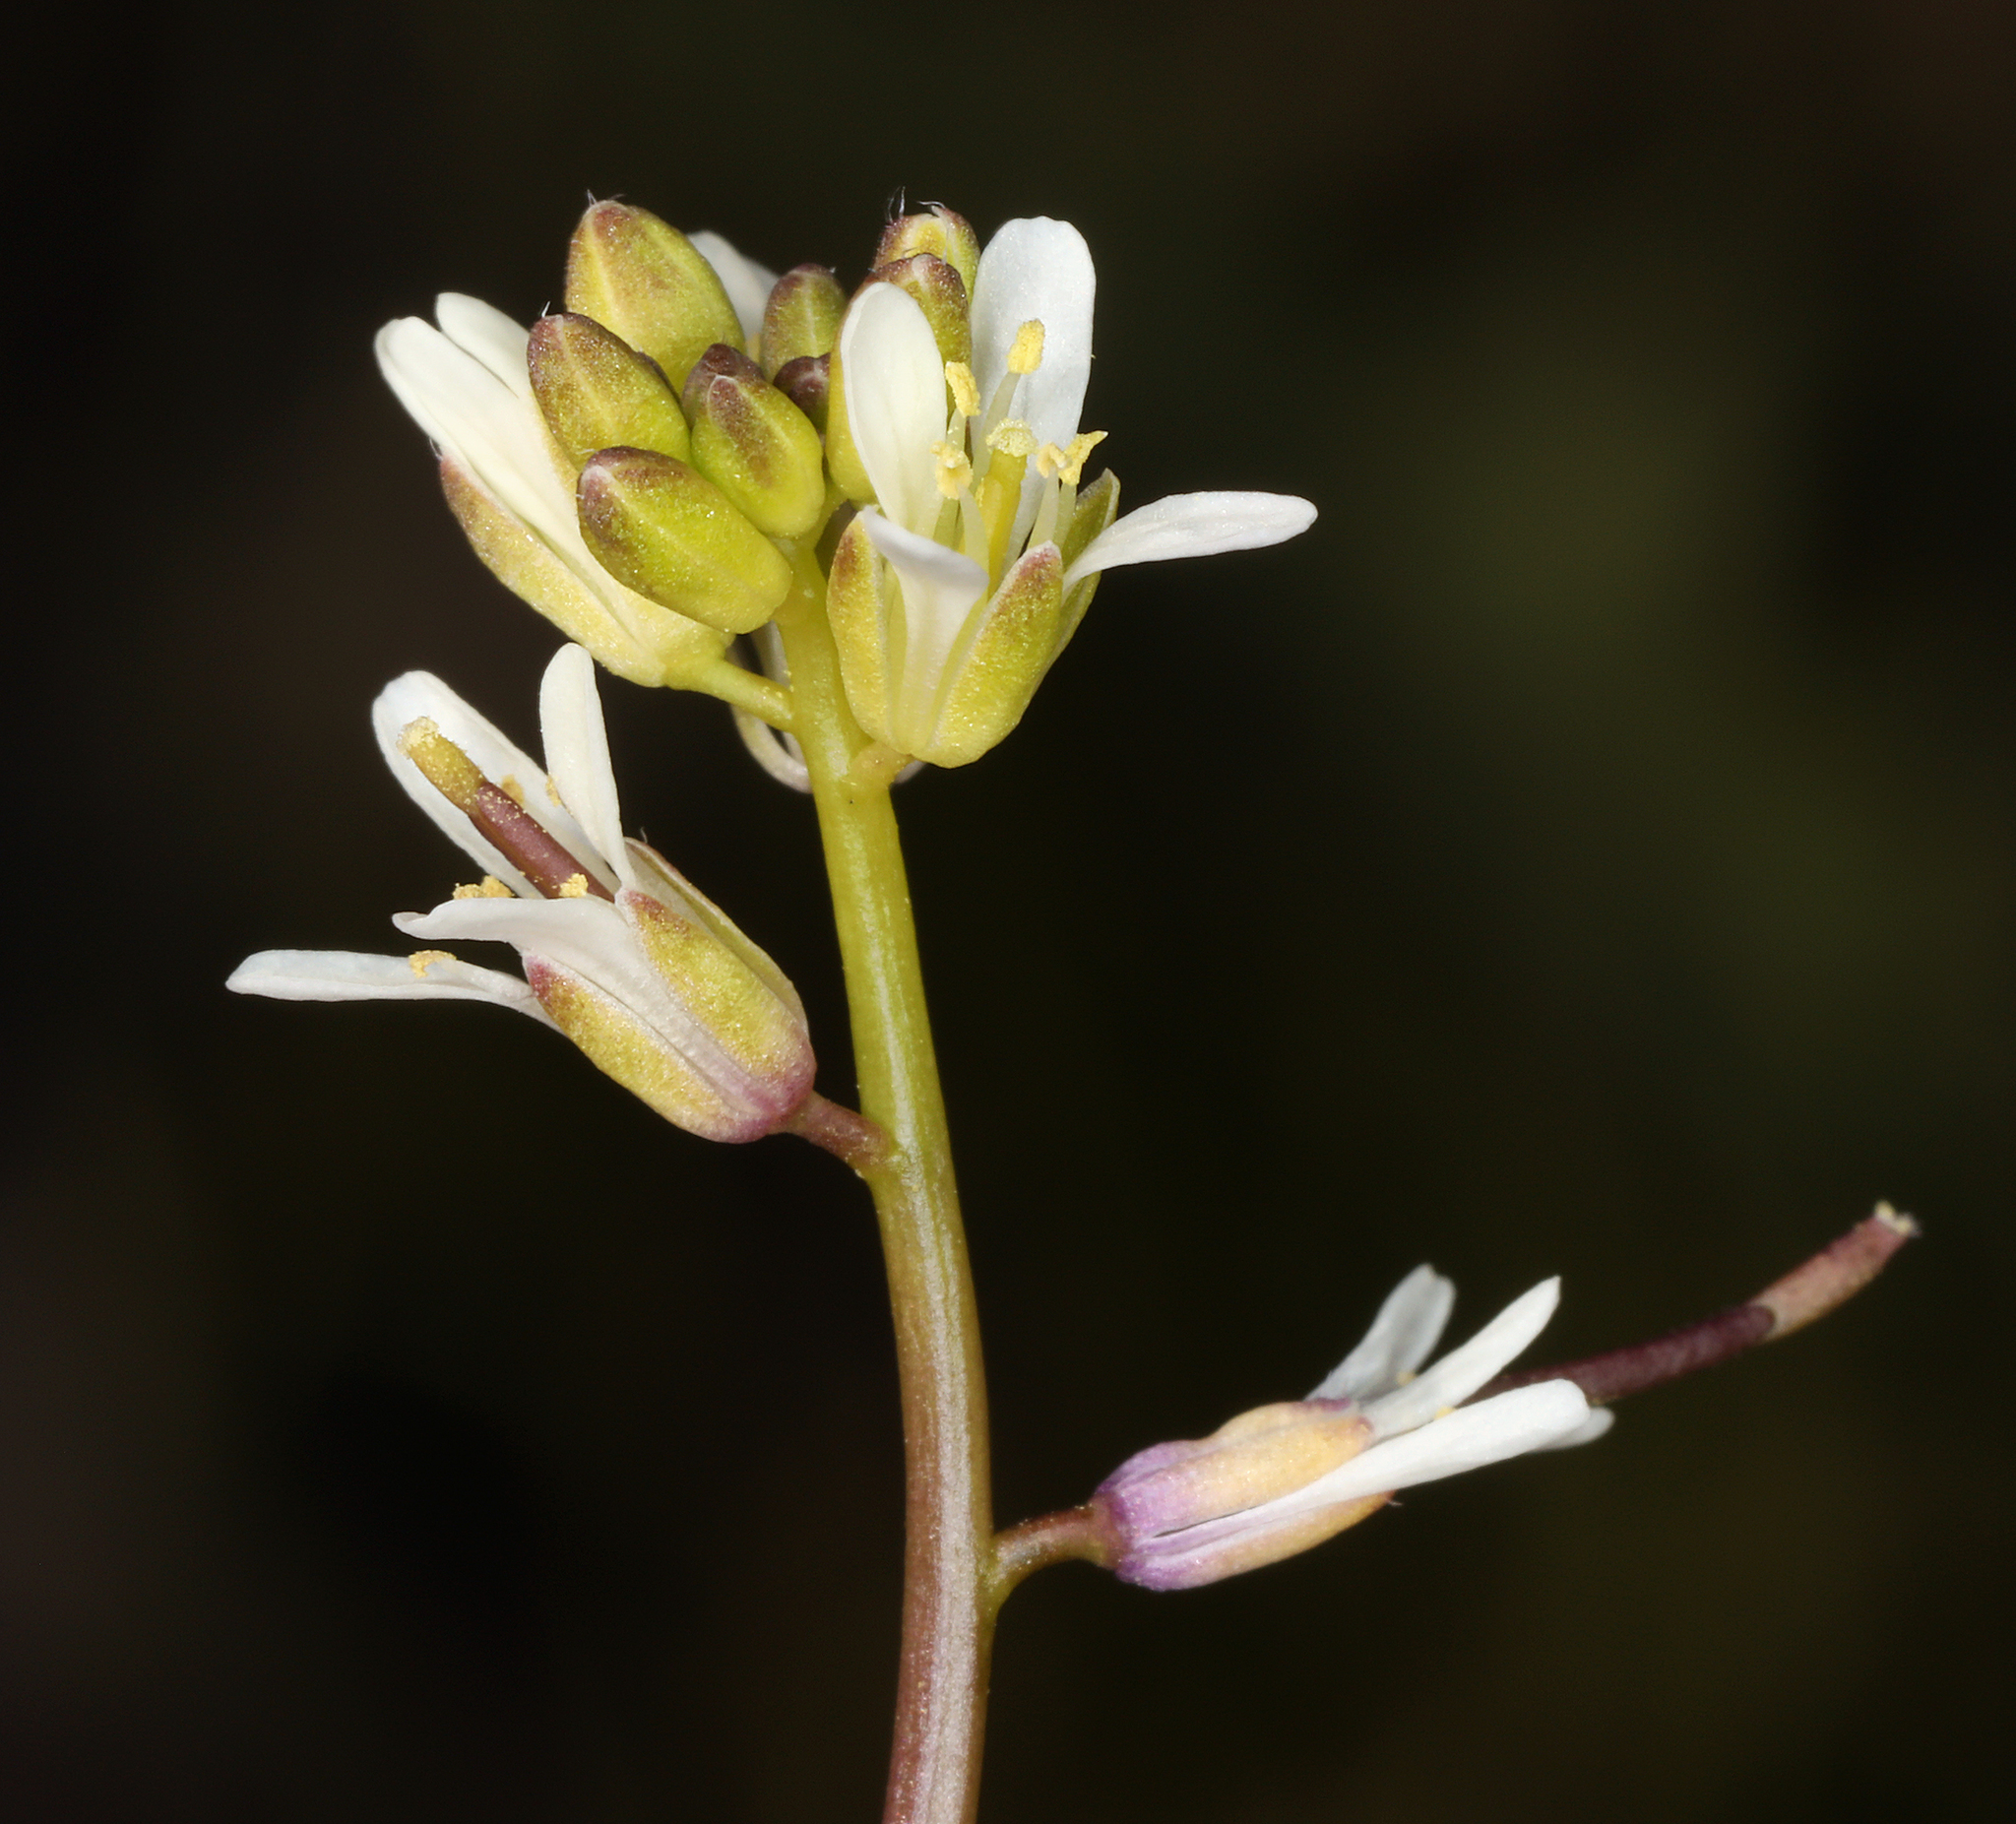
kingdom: Plantae
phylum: Tracheophyta
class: Magnoliopsida
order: Brassicales
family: Brassicaceae
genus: Streptanthus
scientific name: Streptanthus lasiophyllus
